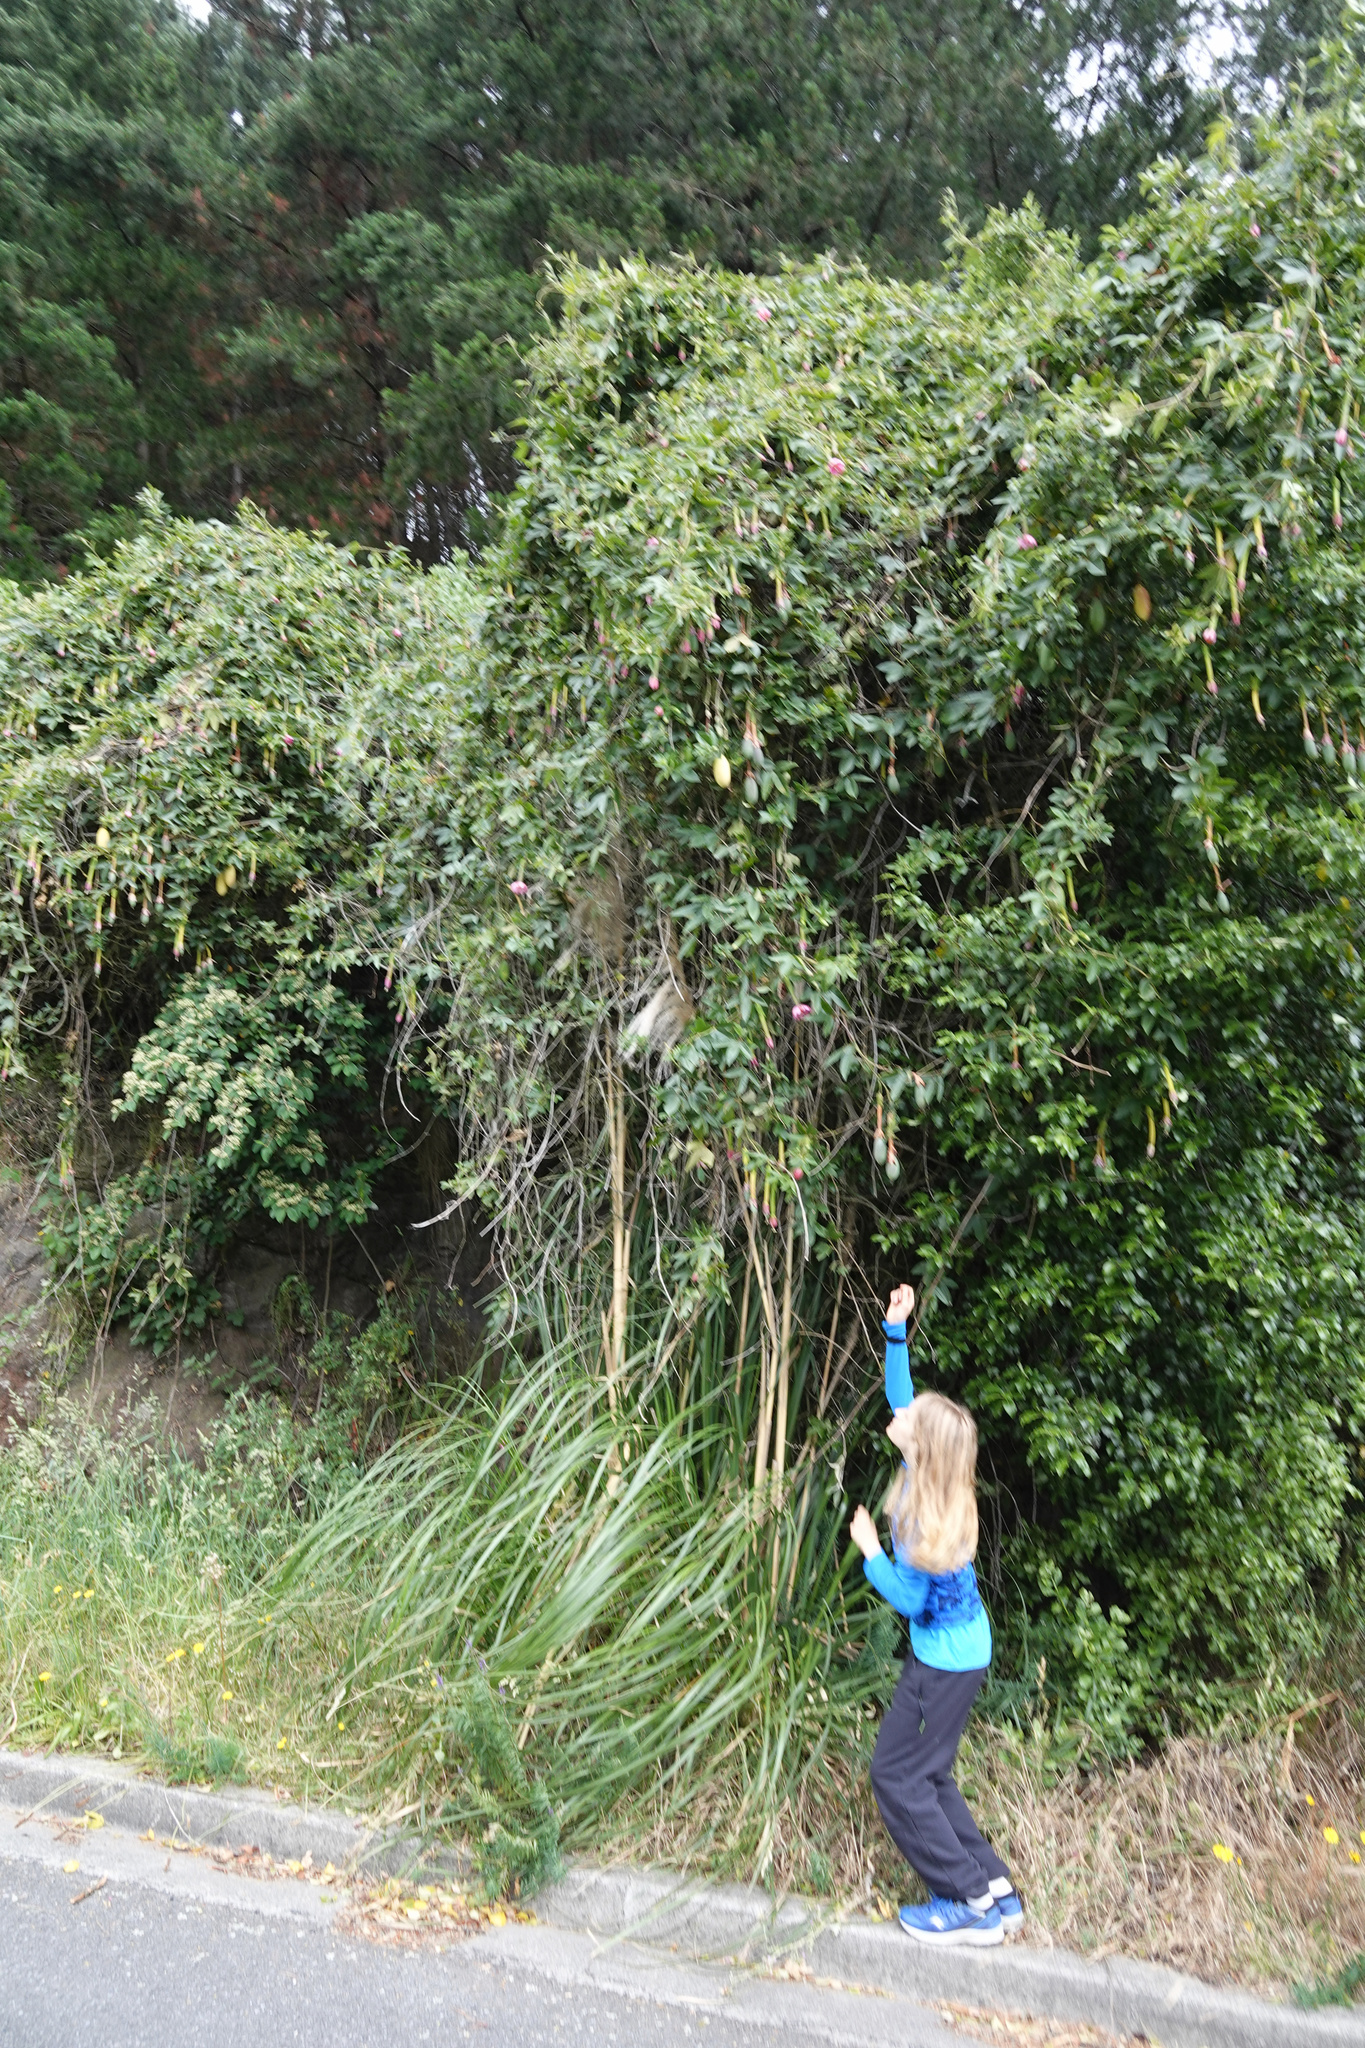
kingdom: Plantae
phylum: Tracheophyta
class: Magnoliopsida
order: Malpighiales
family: Passifloraceae
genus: Passiflora
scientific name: Passiflora tripartita
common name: Banana poka
